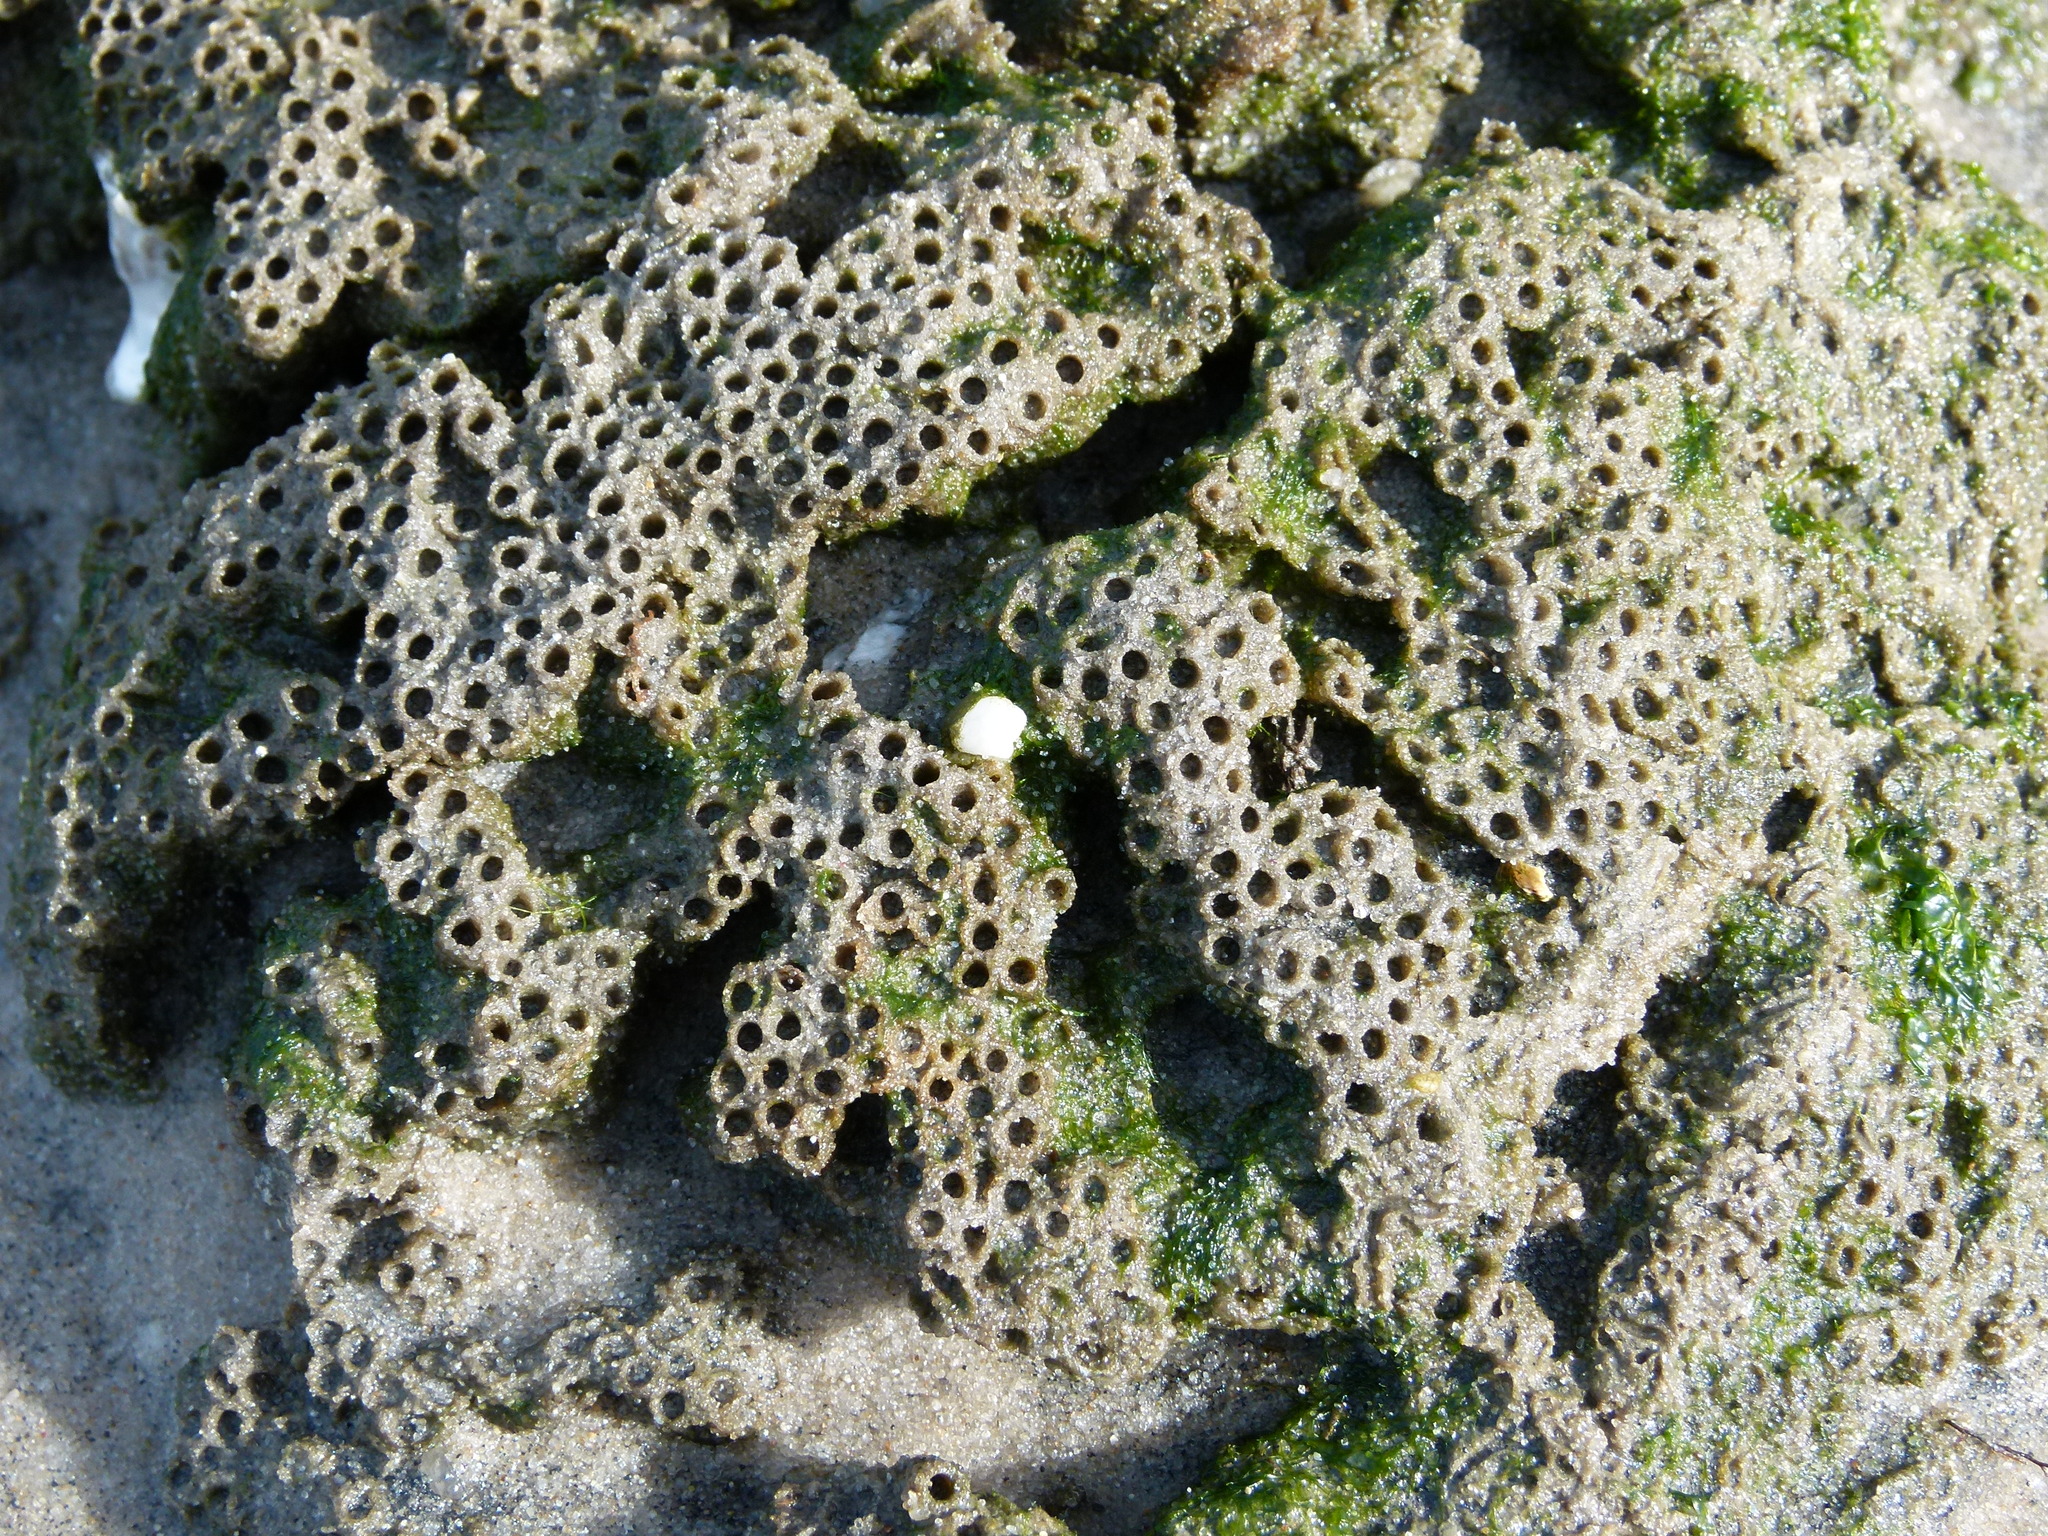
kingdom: Animalia
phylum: Annelida
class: Polychaeta
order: Sabellida
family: Sabellariidae
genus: Sabellaria
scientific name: Sabellaria vulgaris
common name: Reefworm
